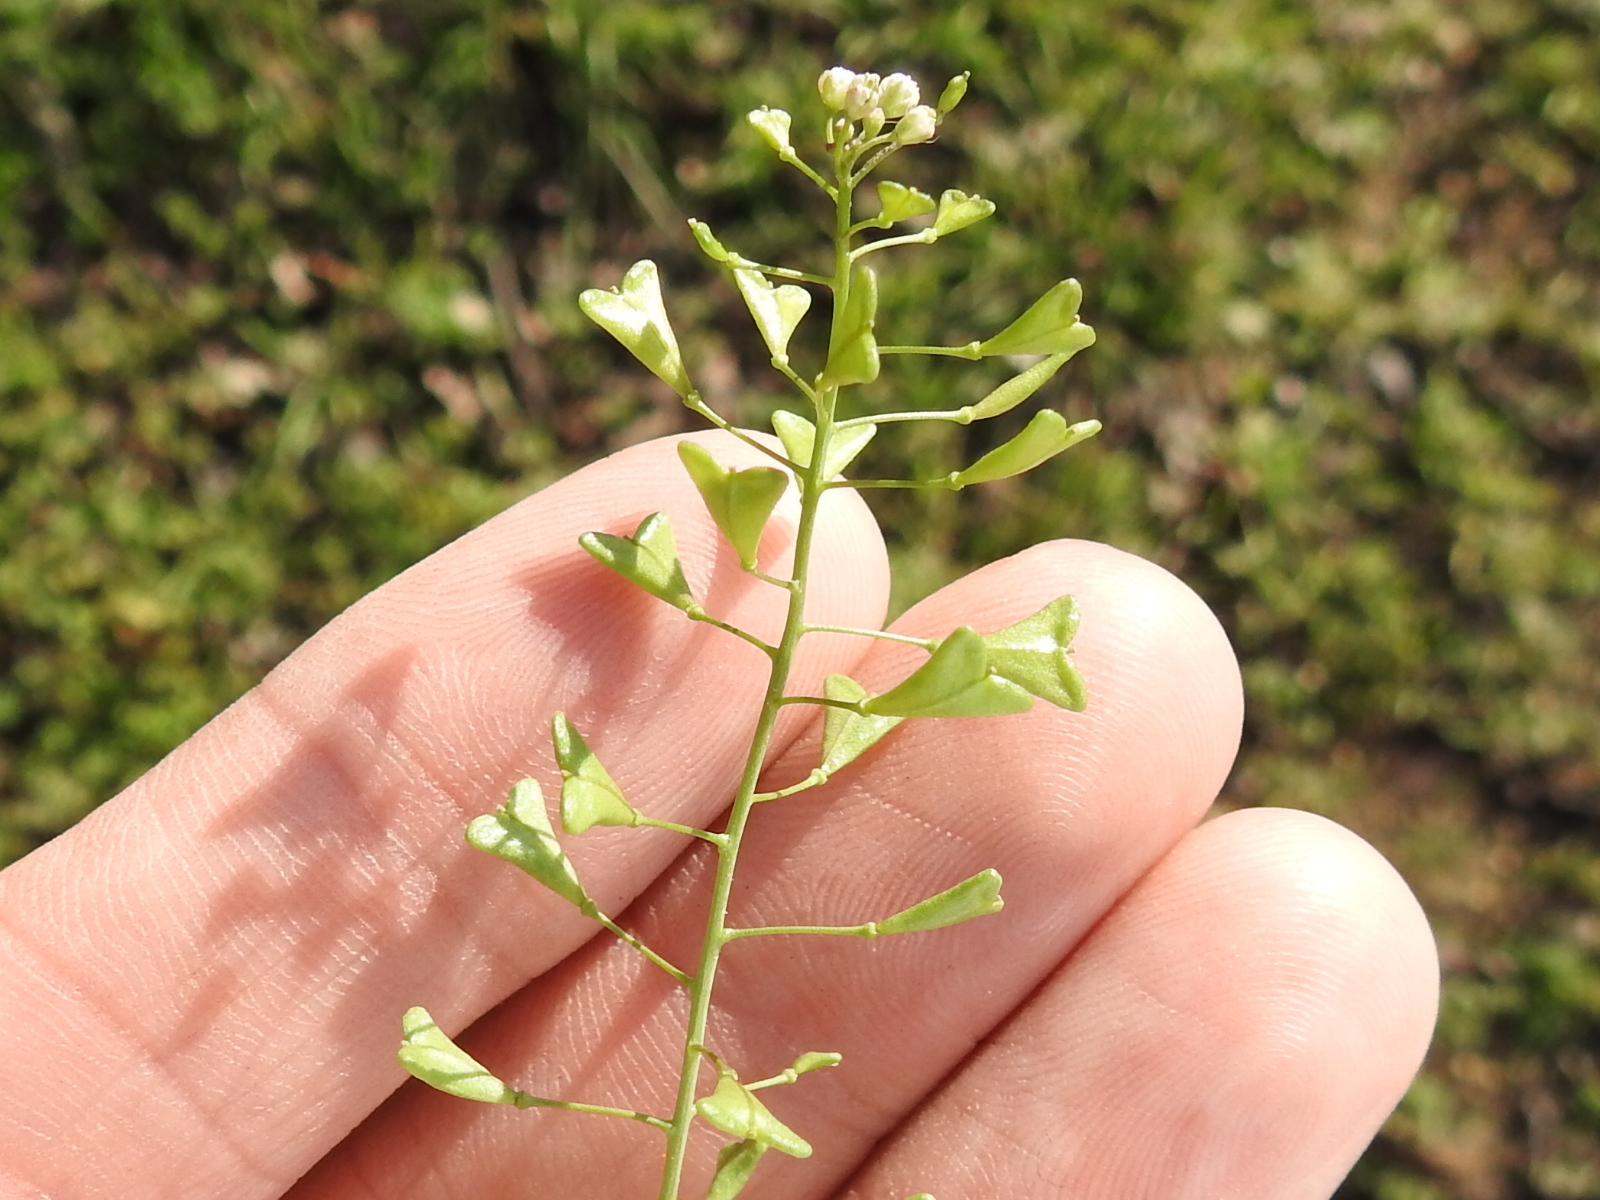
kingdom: Plantae
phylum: Tracheophyta
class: Magnoliopsida
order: Brassicales
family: Brassicaceae
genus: Capsella
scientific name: Capsella bursa-pastoris
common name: Shepherd's purse
